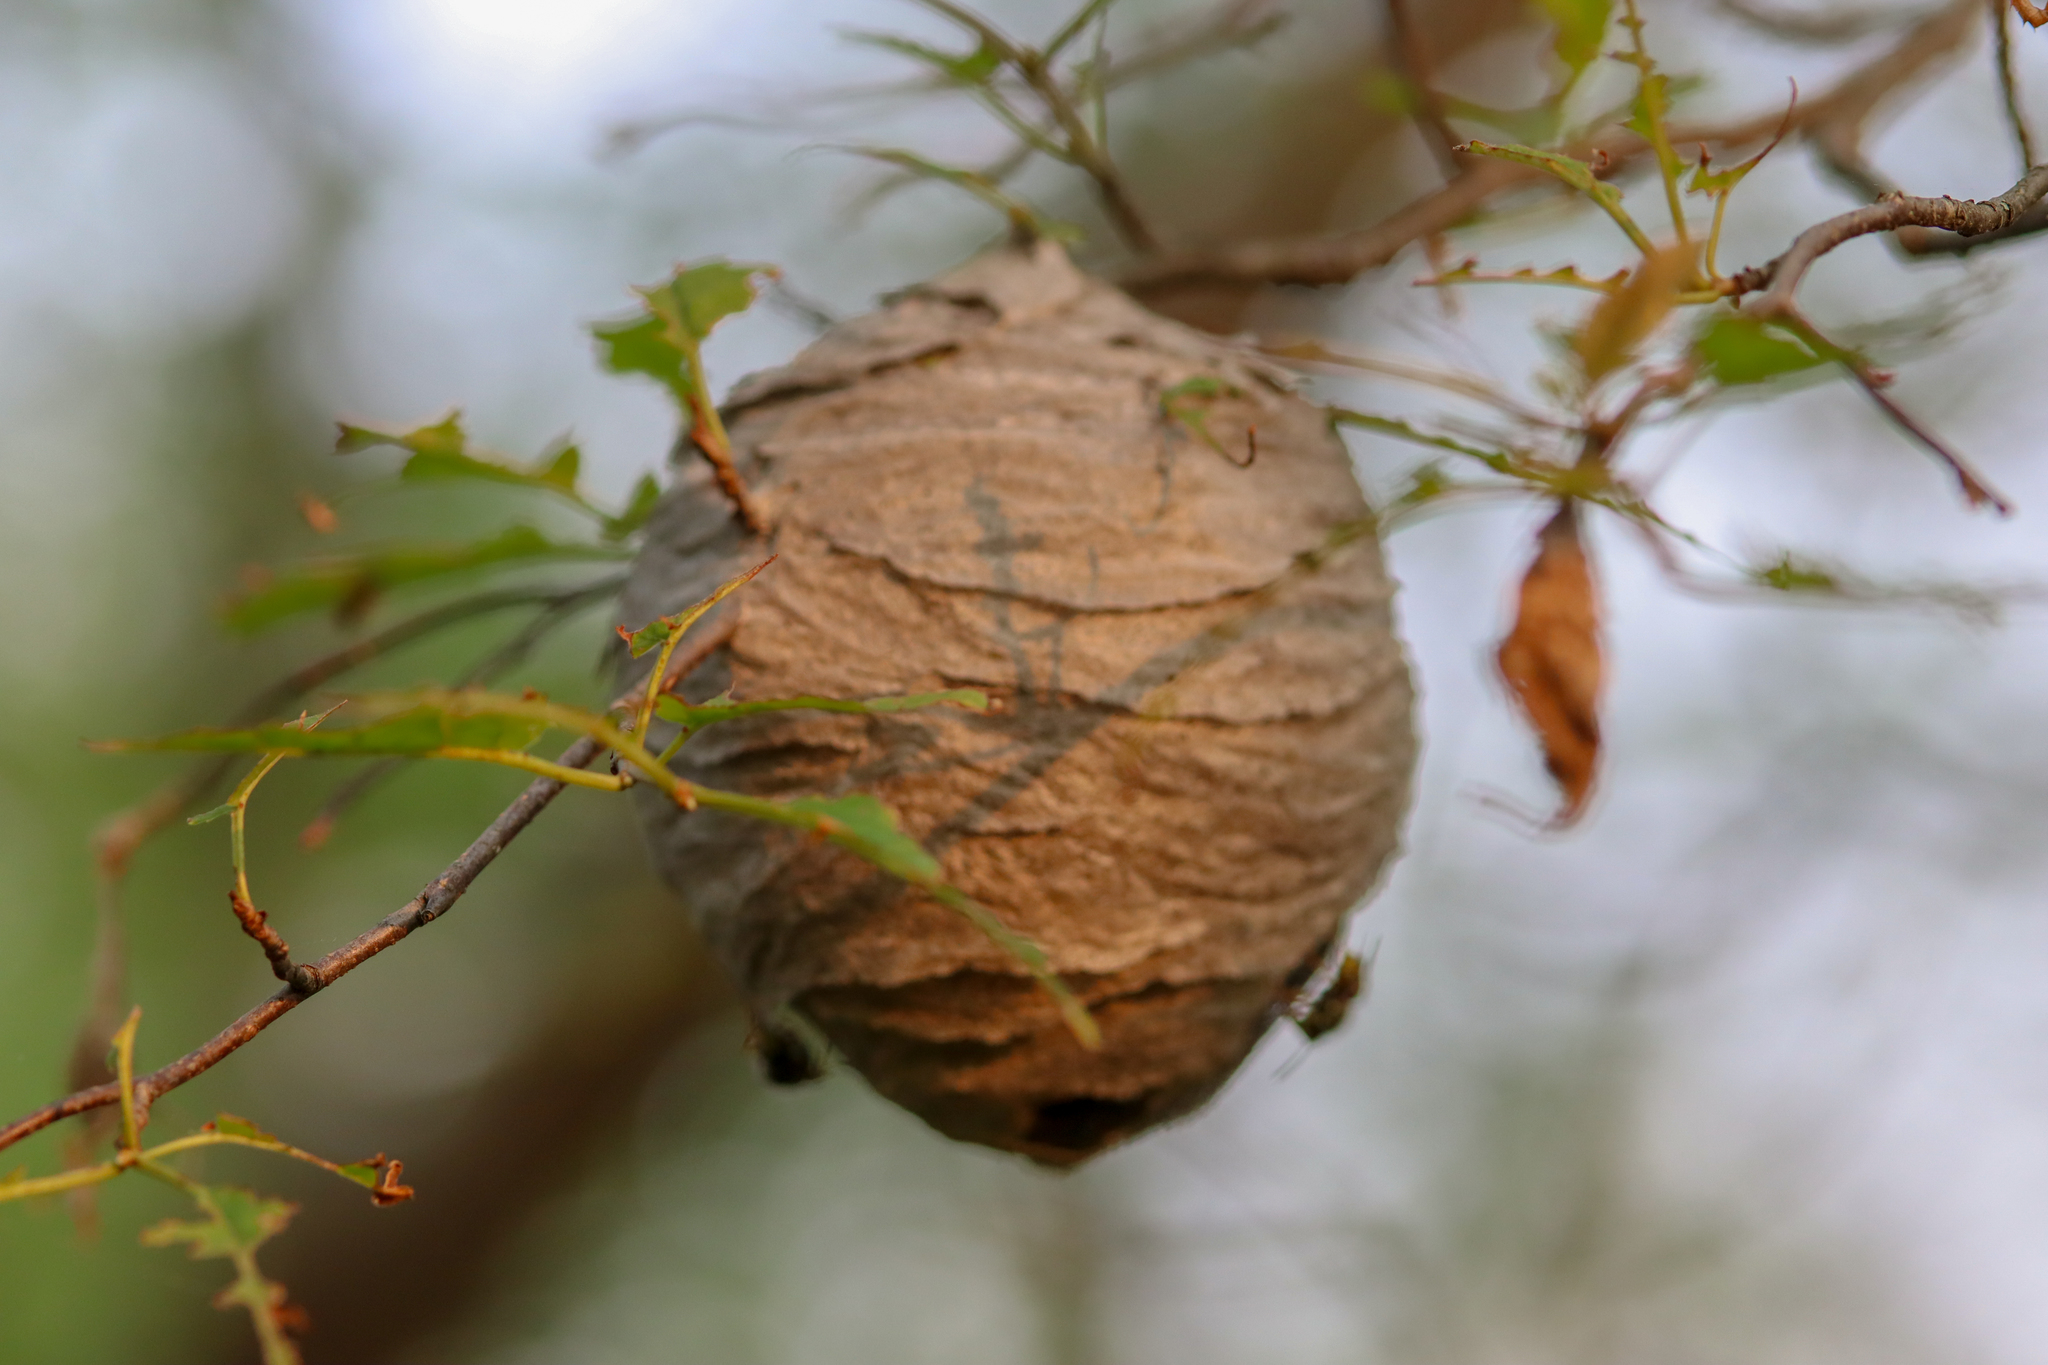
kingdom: Animalia
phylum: Arthropoda
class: Insecta
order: Hymenoptera
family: Vespidae
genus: Dolichovespula
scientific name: Dolichovespula
